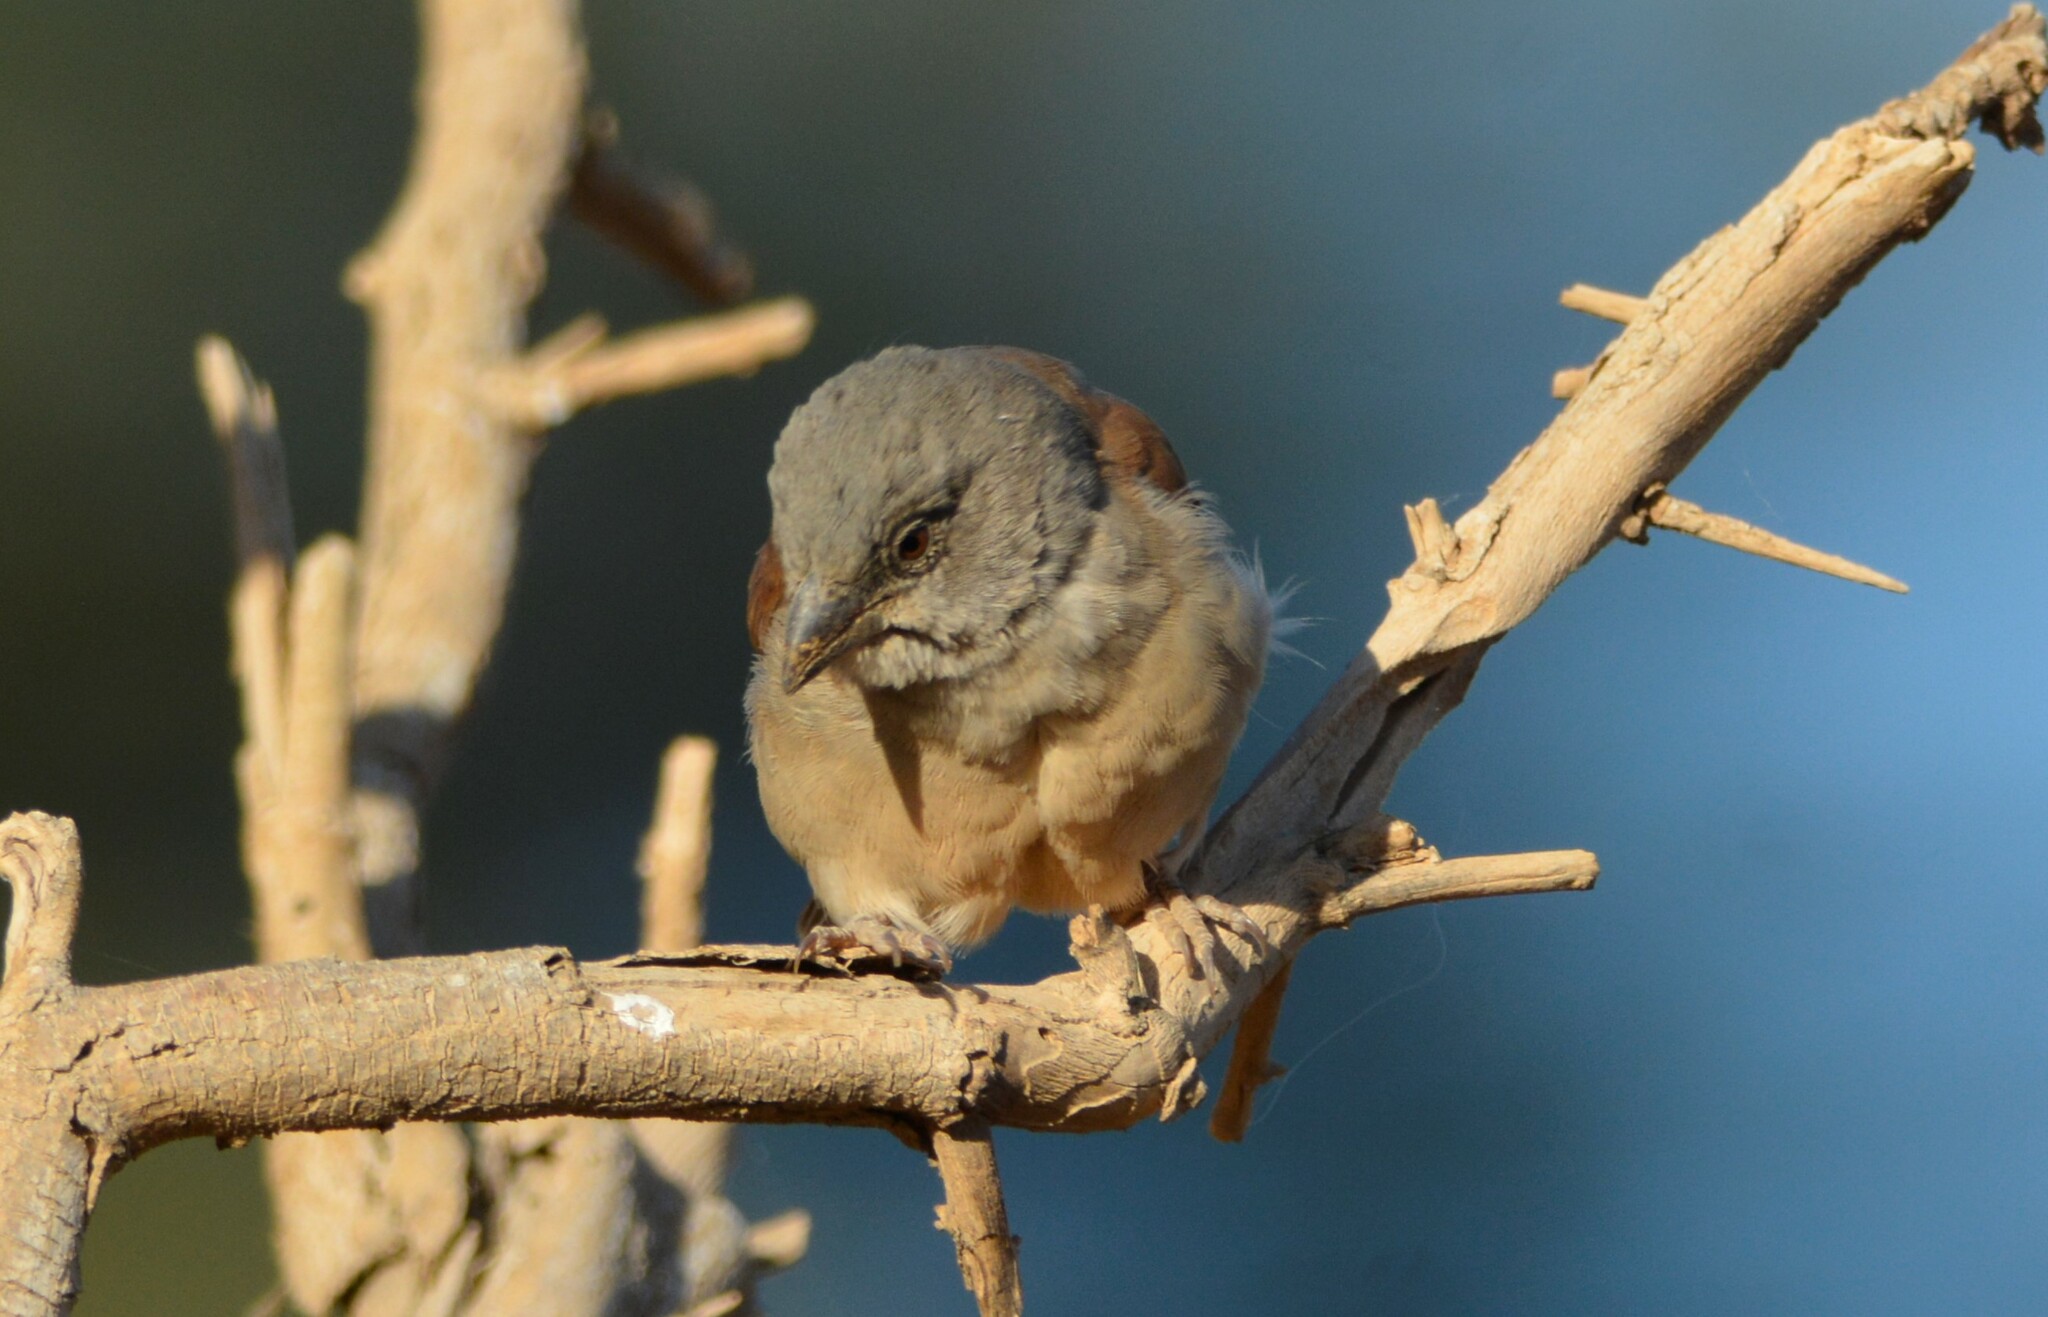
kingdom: Animalia
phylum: Chordata
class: Aves
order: Passeriformes
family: Passeridae
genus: Passer
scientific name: Passer griseus
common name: Northern grey-headed sparrow
